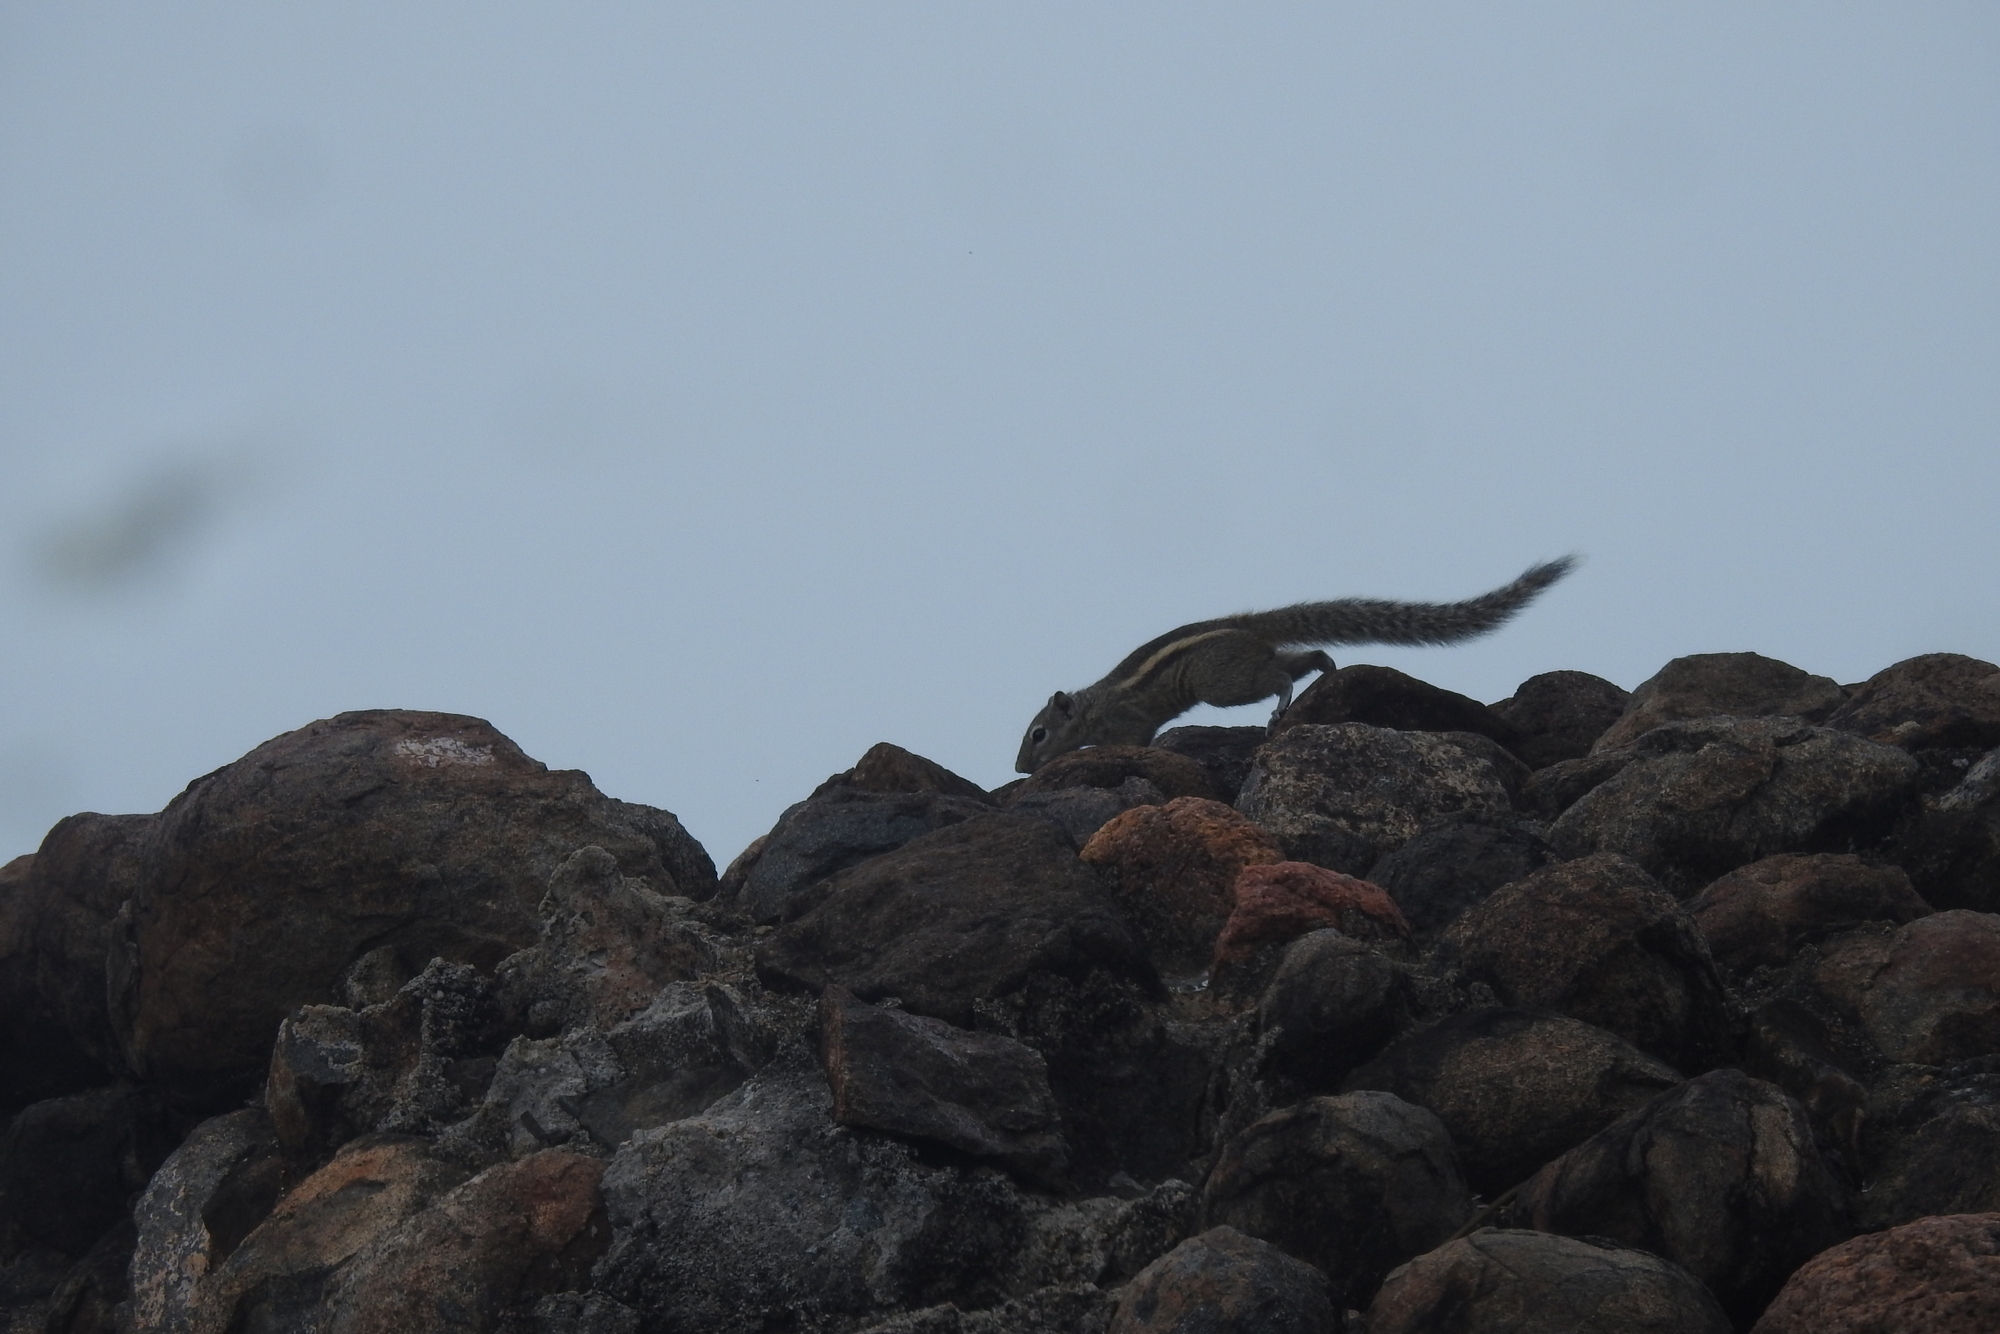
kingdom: Animalia
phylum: Chordata
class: Mammalia
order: Rodentia
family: Sciuridae
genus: Funambulus
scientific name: Funambulus palmarum
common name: Indian palm squirrel
